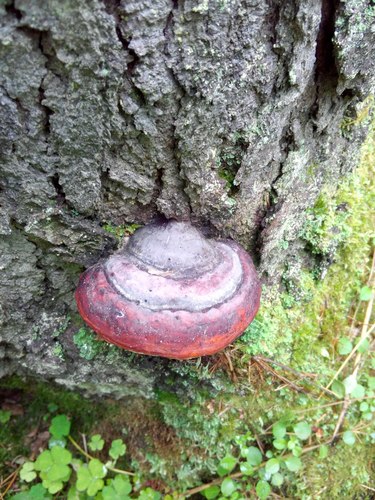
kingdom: Fungi
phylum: Basidiomycota
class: Agaricomycetes
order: Polyporales
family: Fomitopsidaceae
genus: Fomitopsis
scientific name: Fomitopsis pinicola
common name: Red-belted bracket
